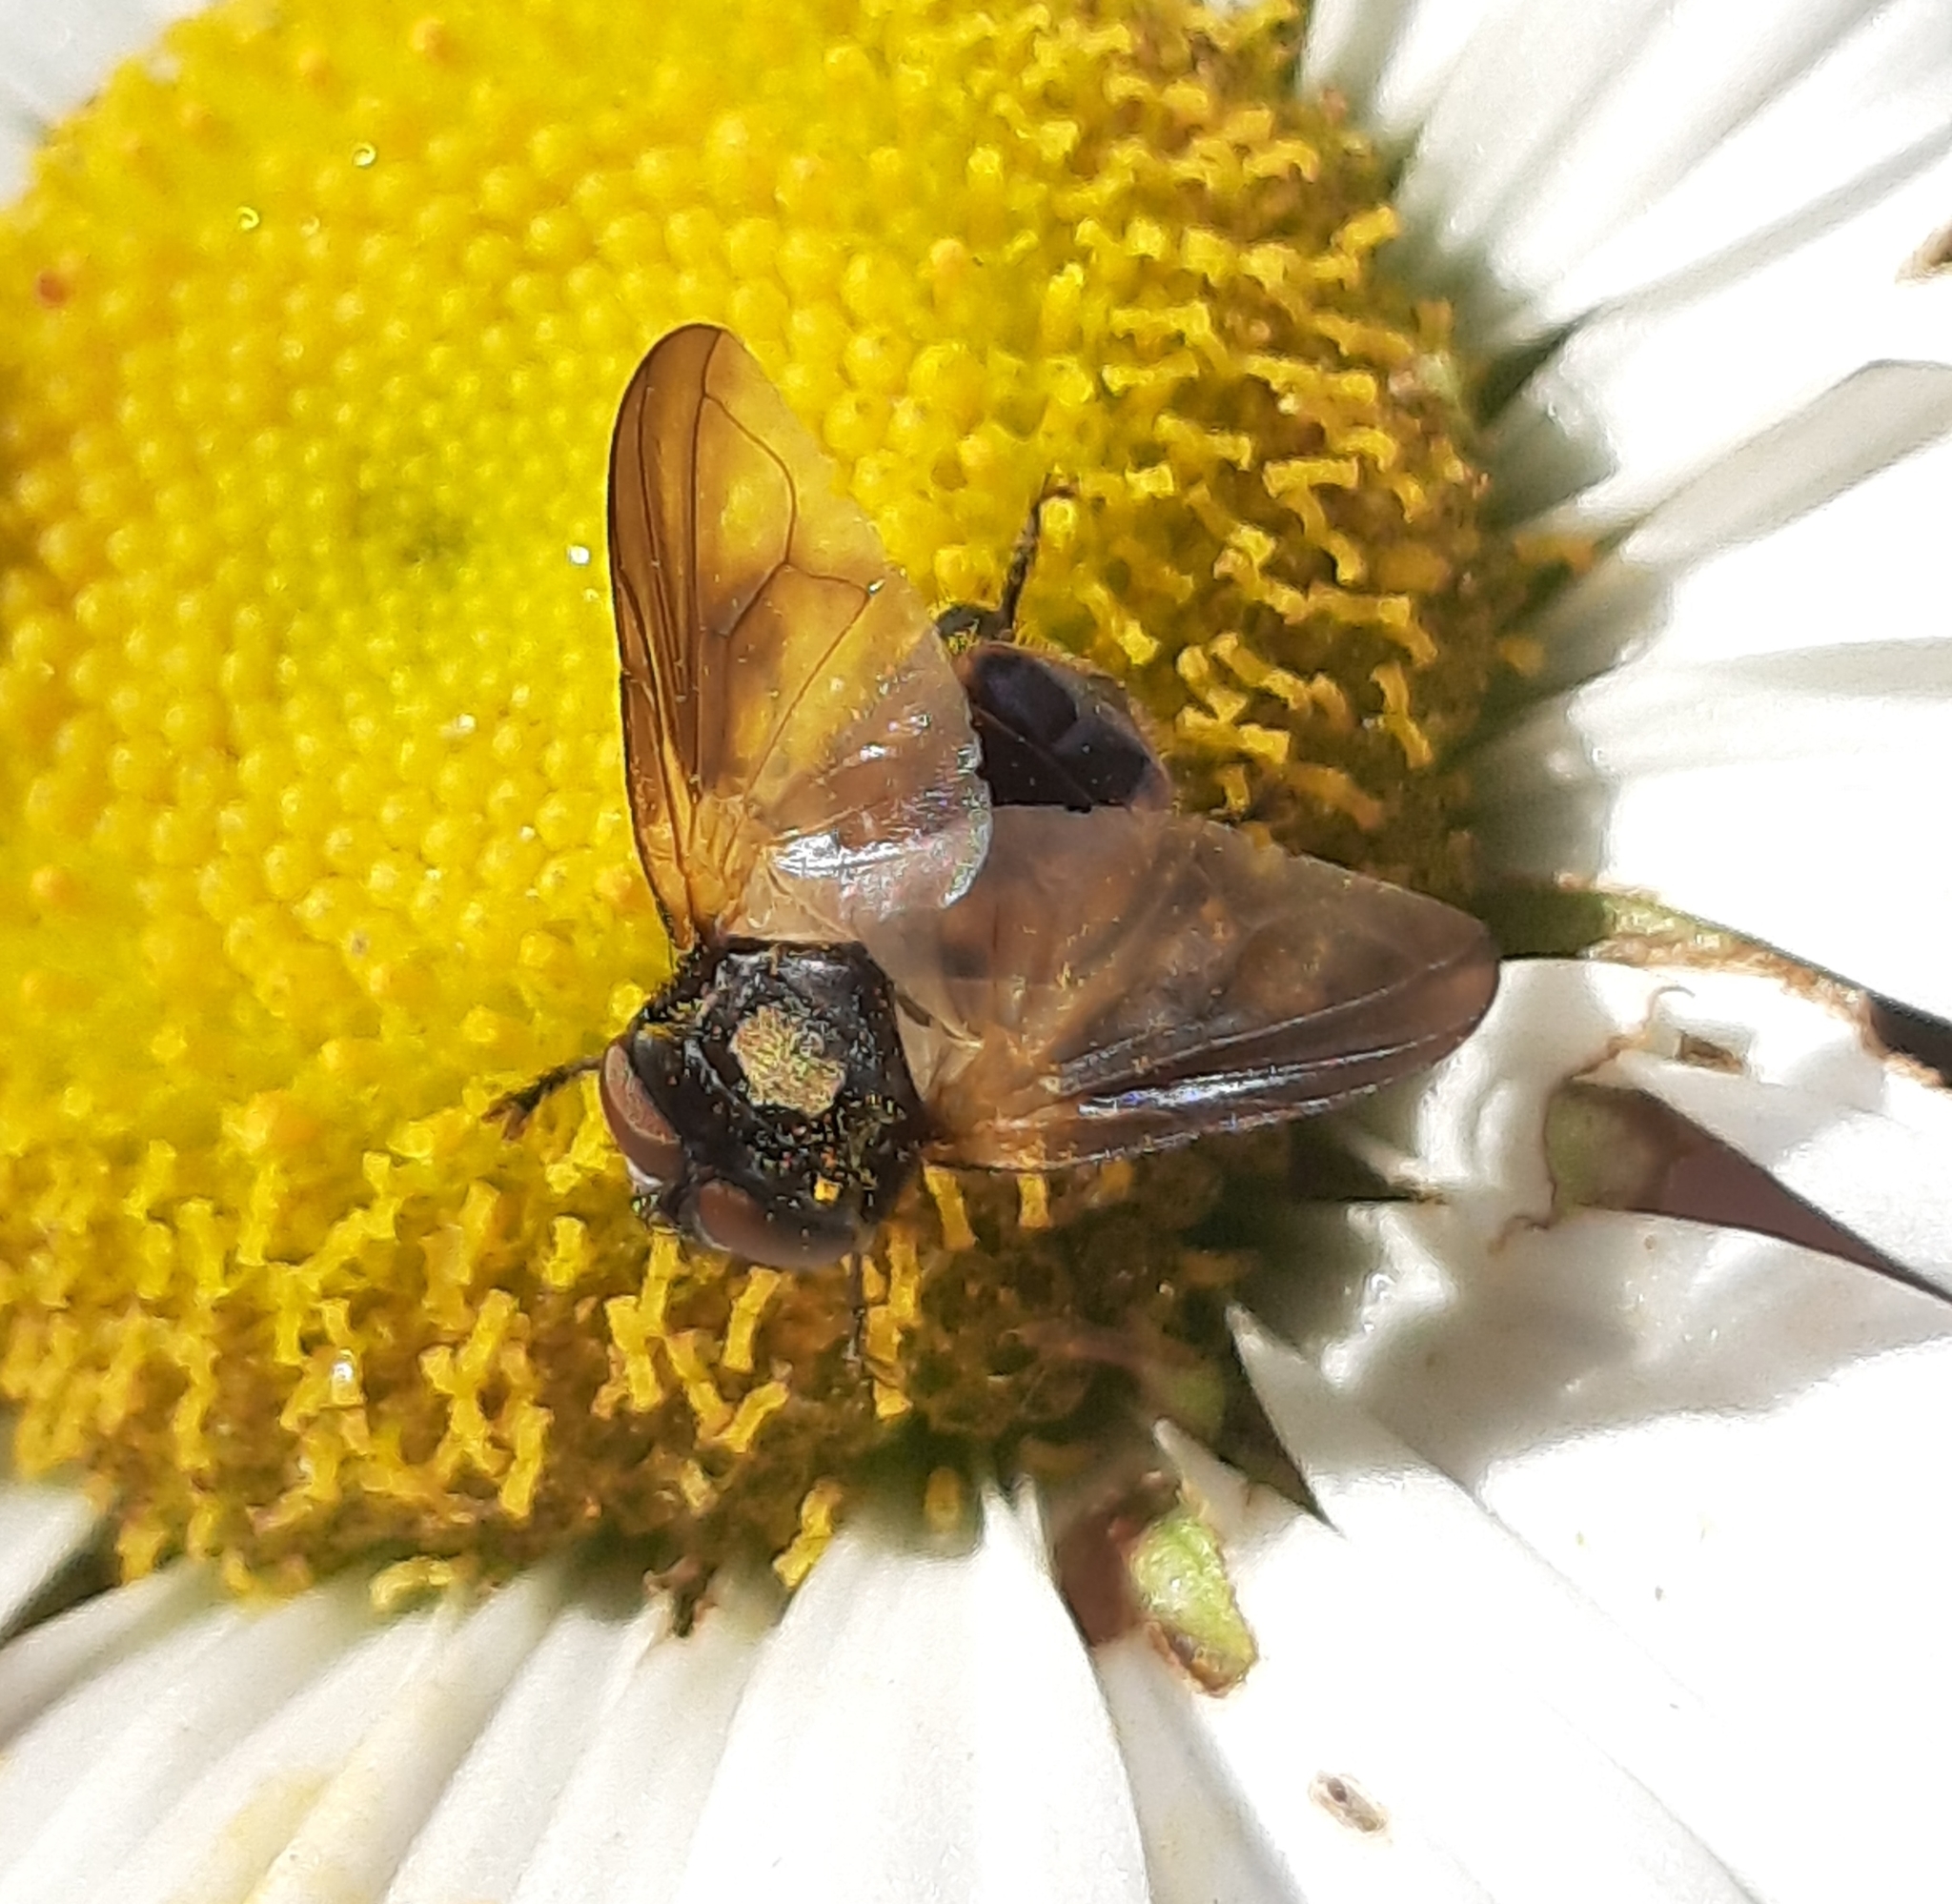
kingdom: Animalia
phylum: Arthropoda
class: Insecta
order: Diptera
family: Tachinidae
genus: Phasia
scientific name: Phasia aurulans
